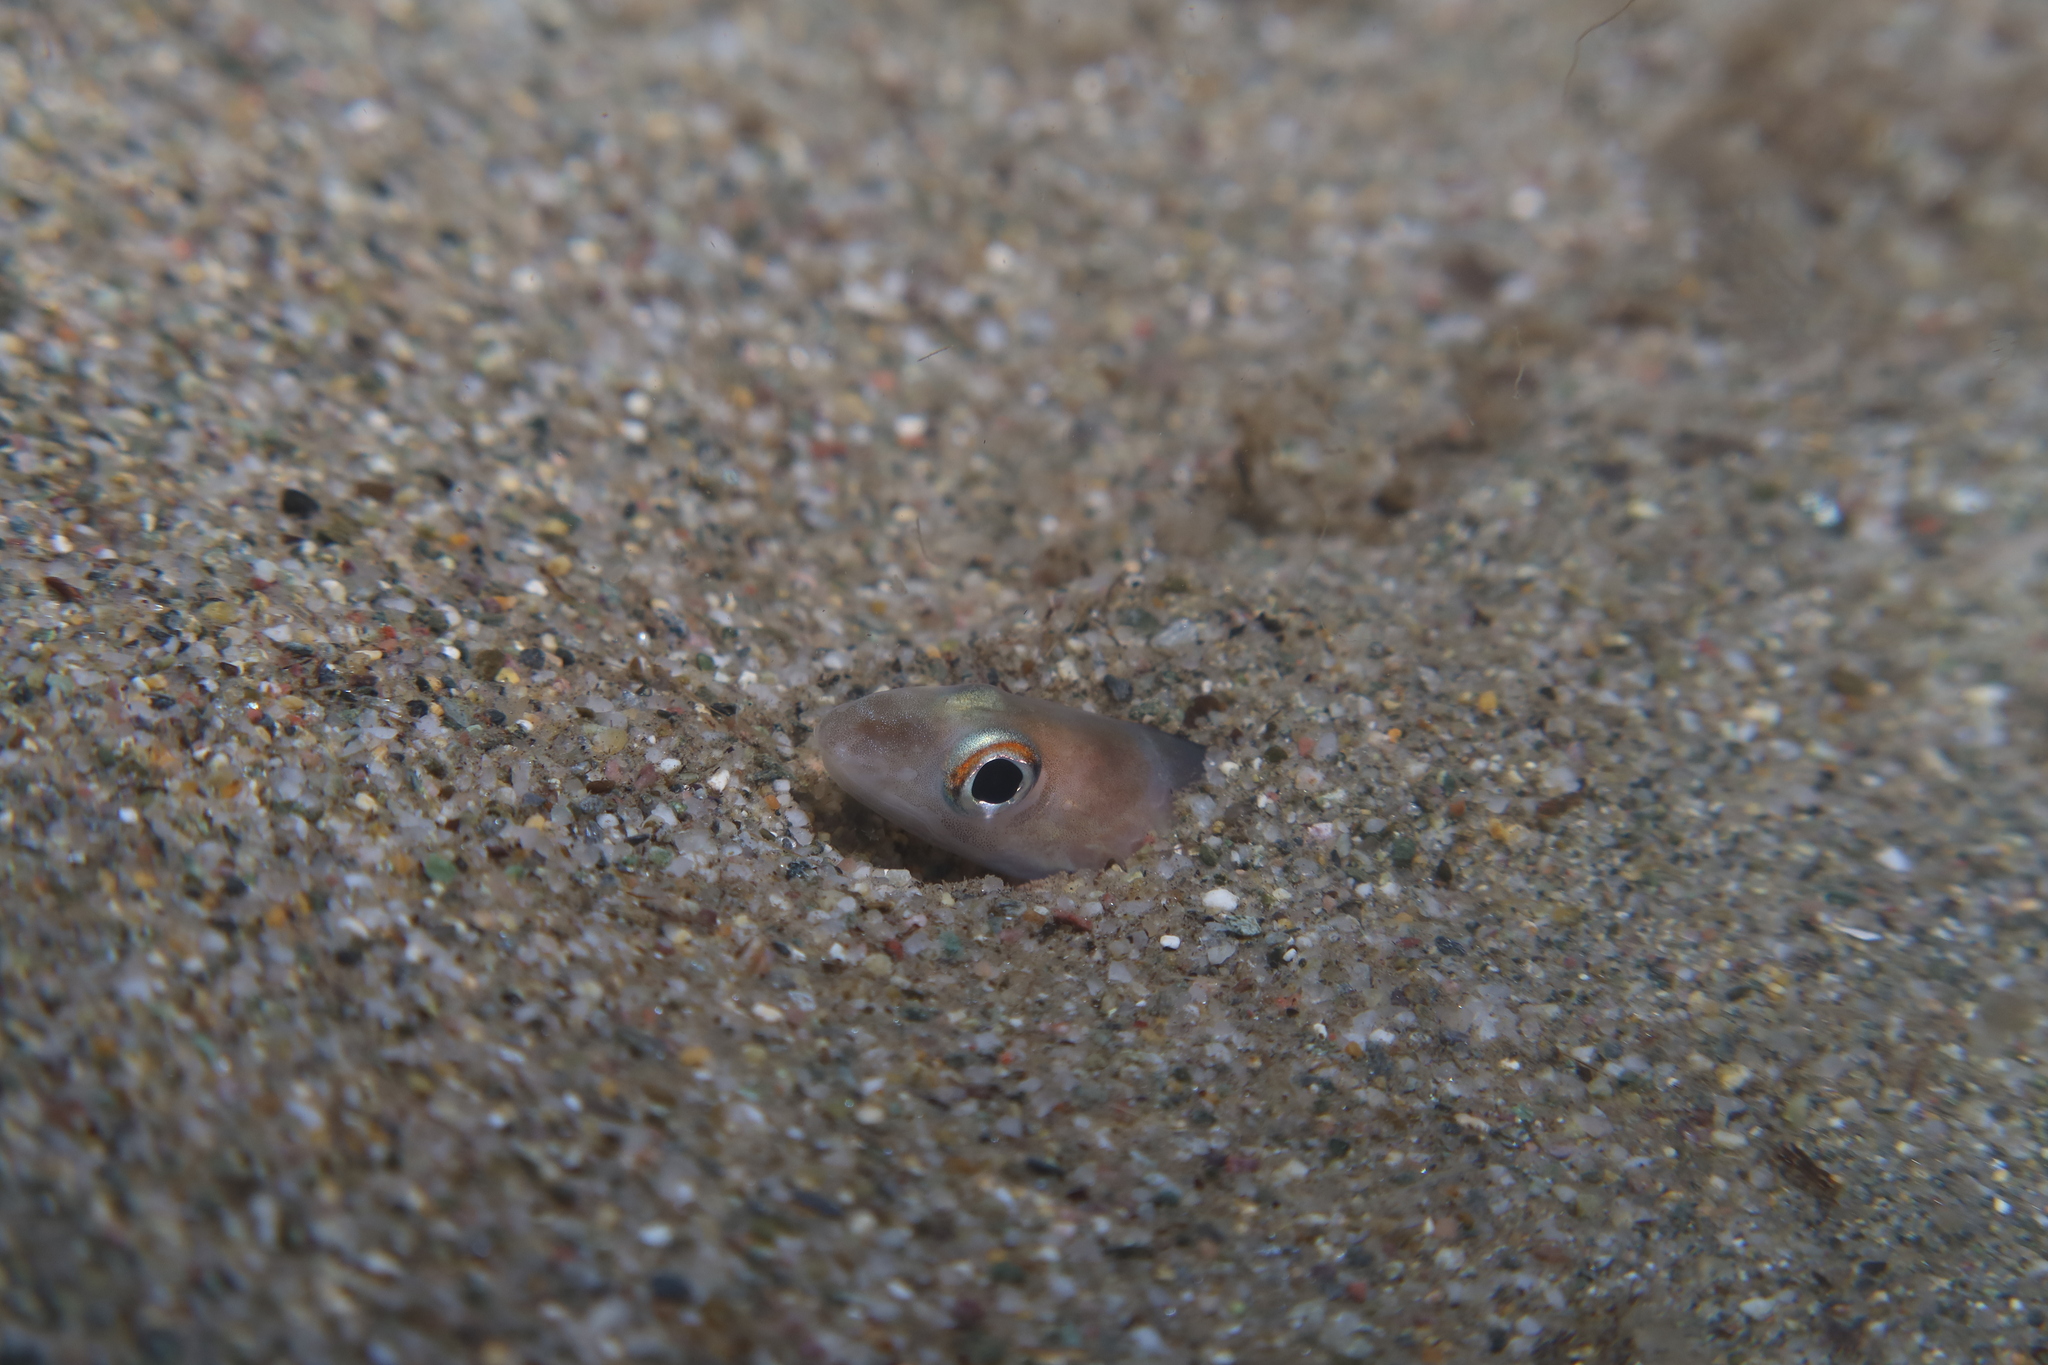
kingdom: Animalia
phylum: Chordata
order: Anguilliformes
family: Congridae
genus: Ariosoma
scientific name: Ariosoma balearicum
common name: Bandtooth conger
